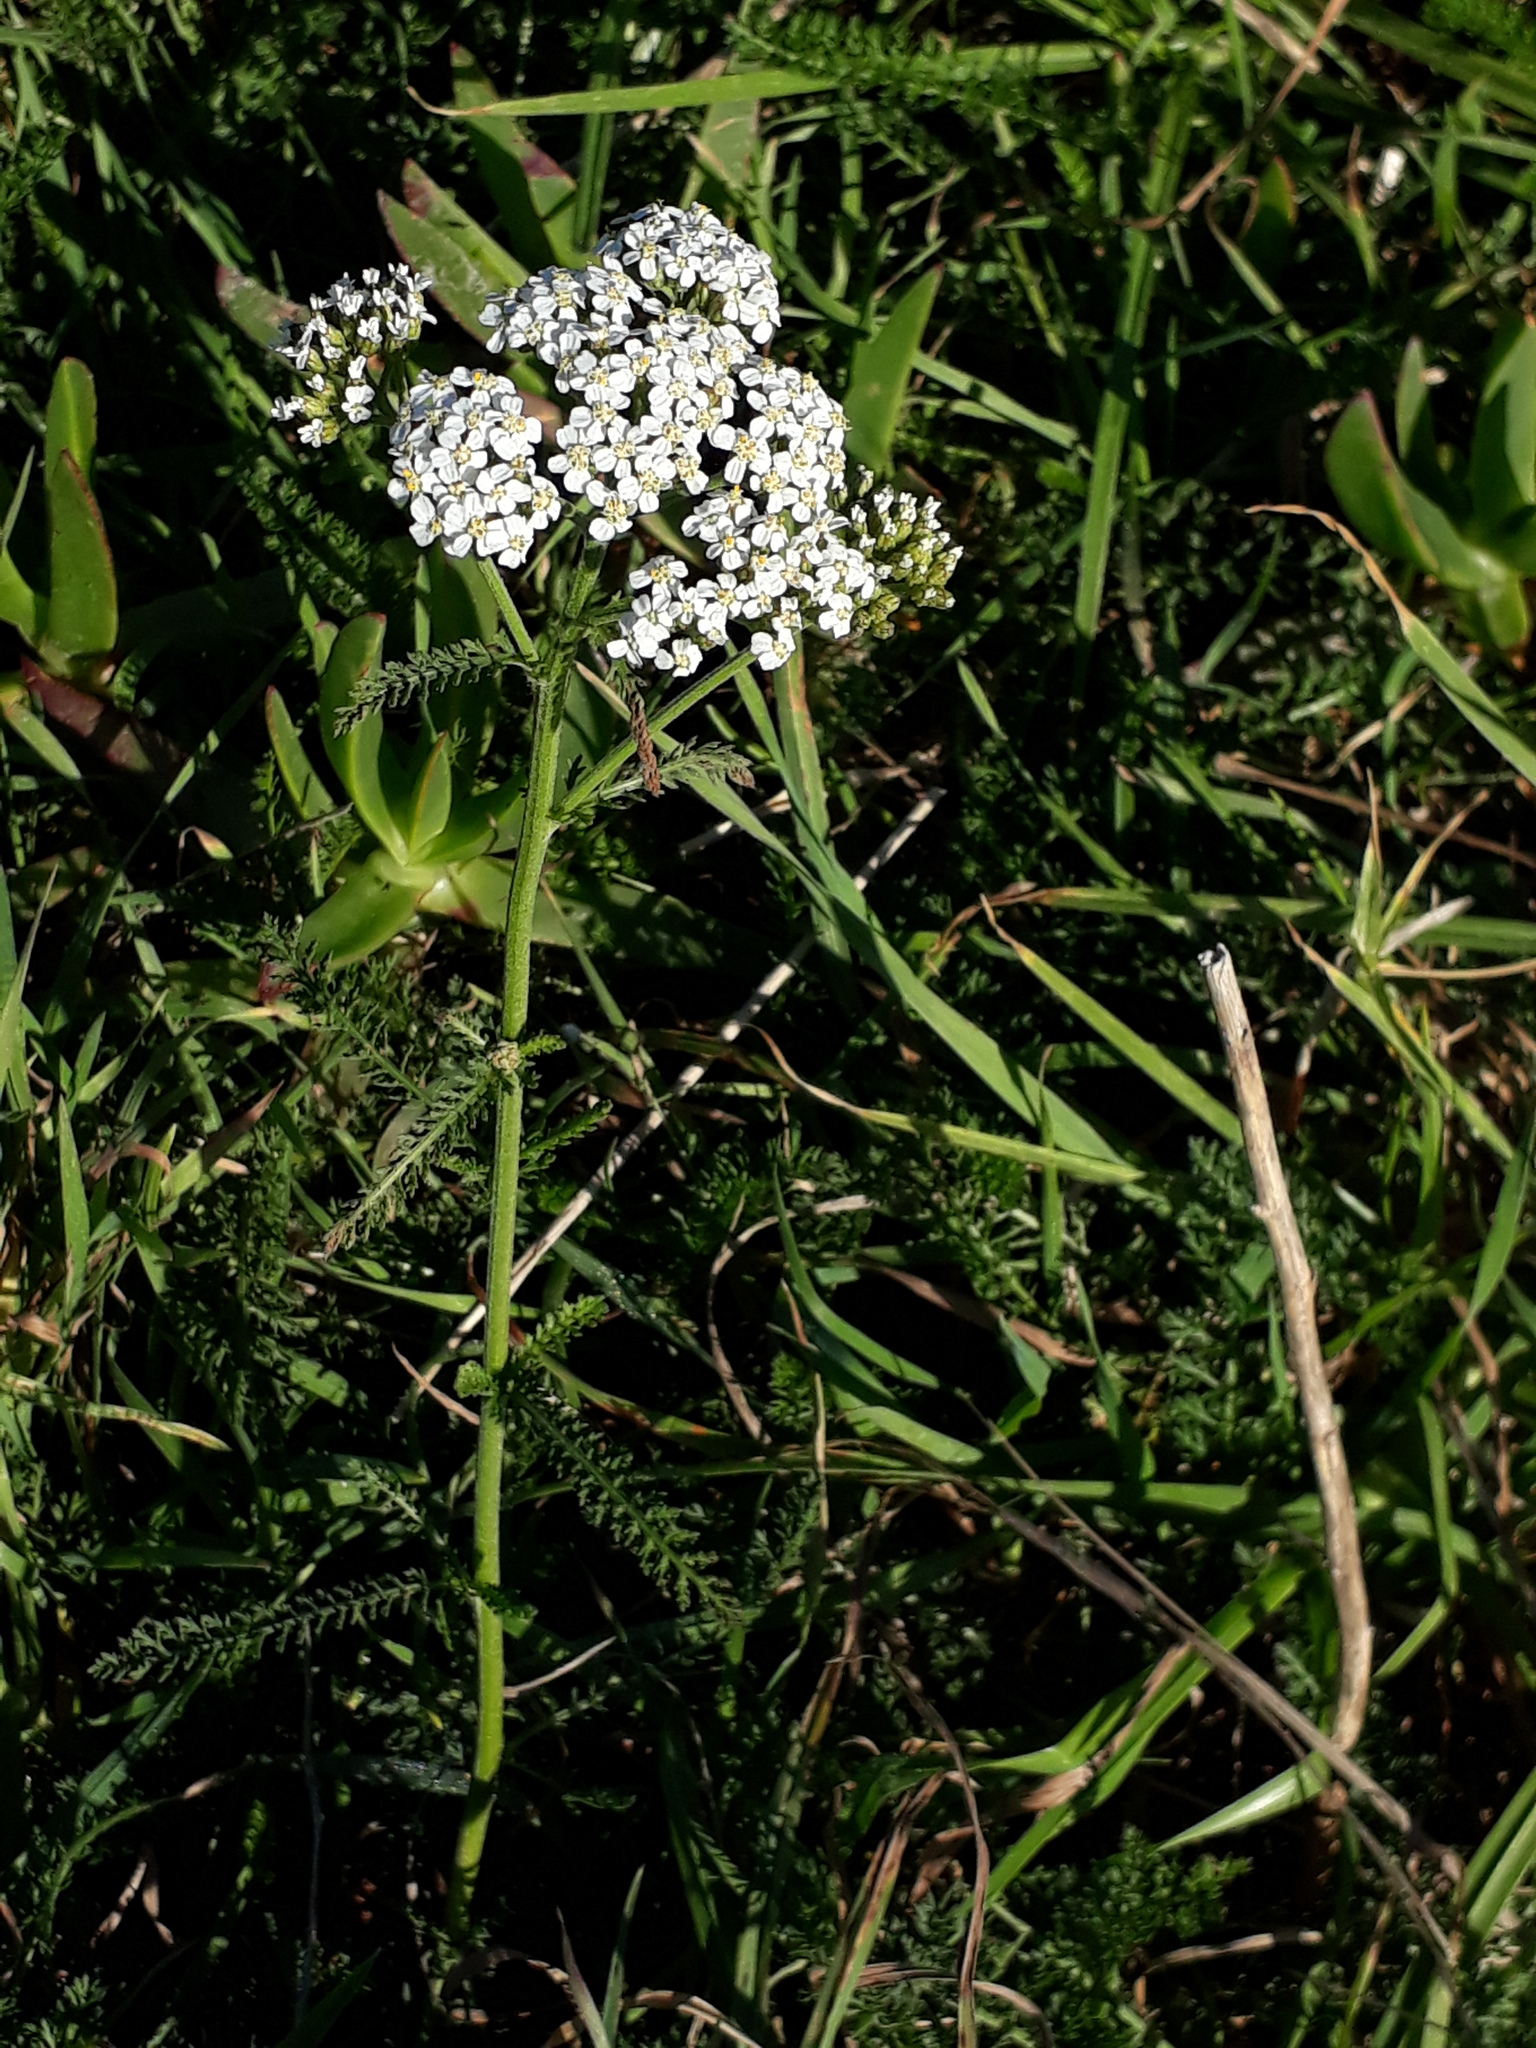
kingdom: Plantae
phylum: Tracheophyta
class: Magnoliopsida
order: Asterales
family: Asteraceae
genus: Achillea
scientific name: Achillea millefolium
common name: Yarrow
